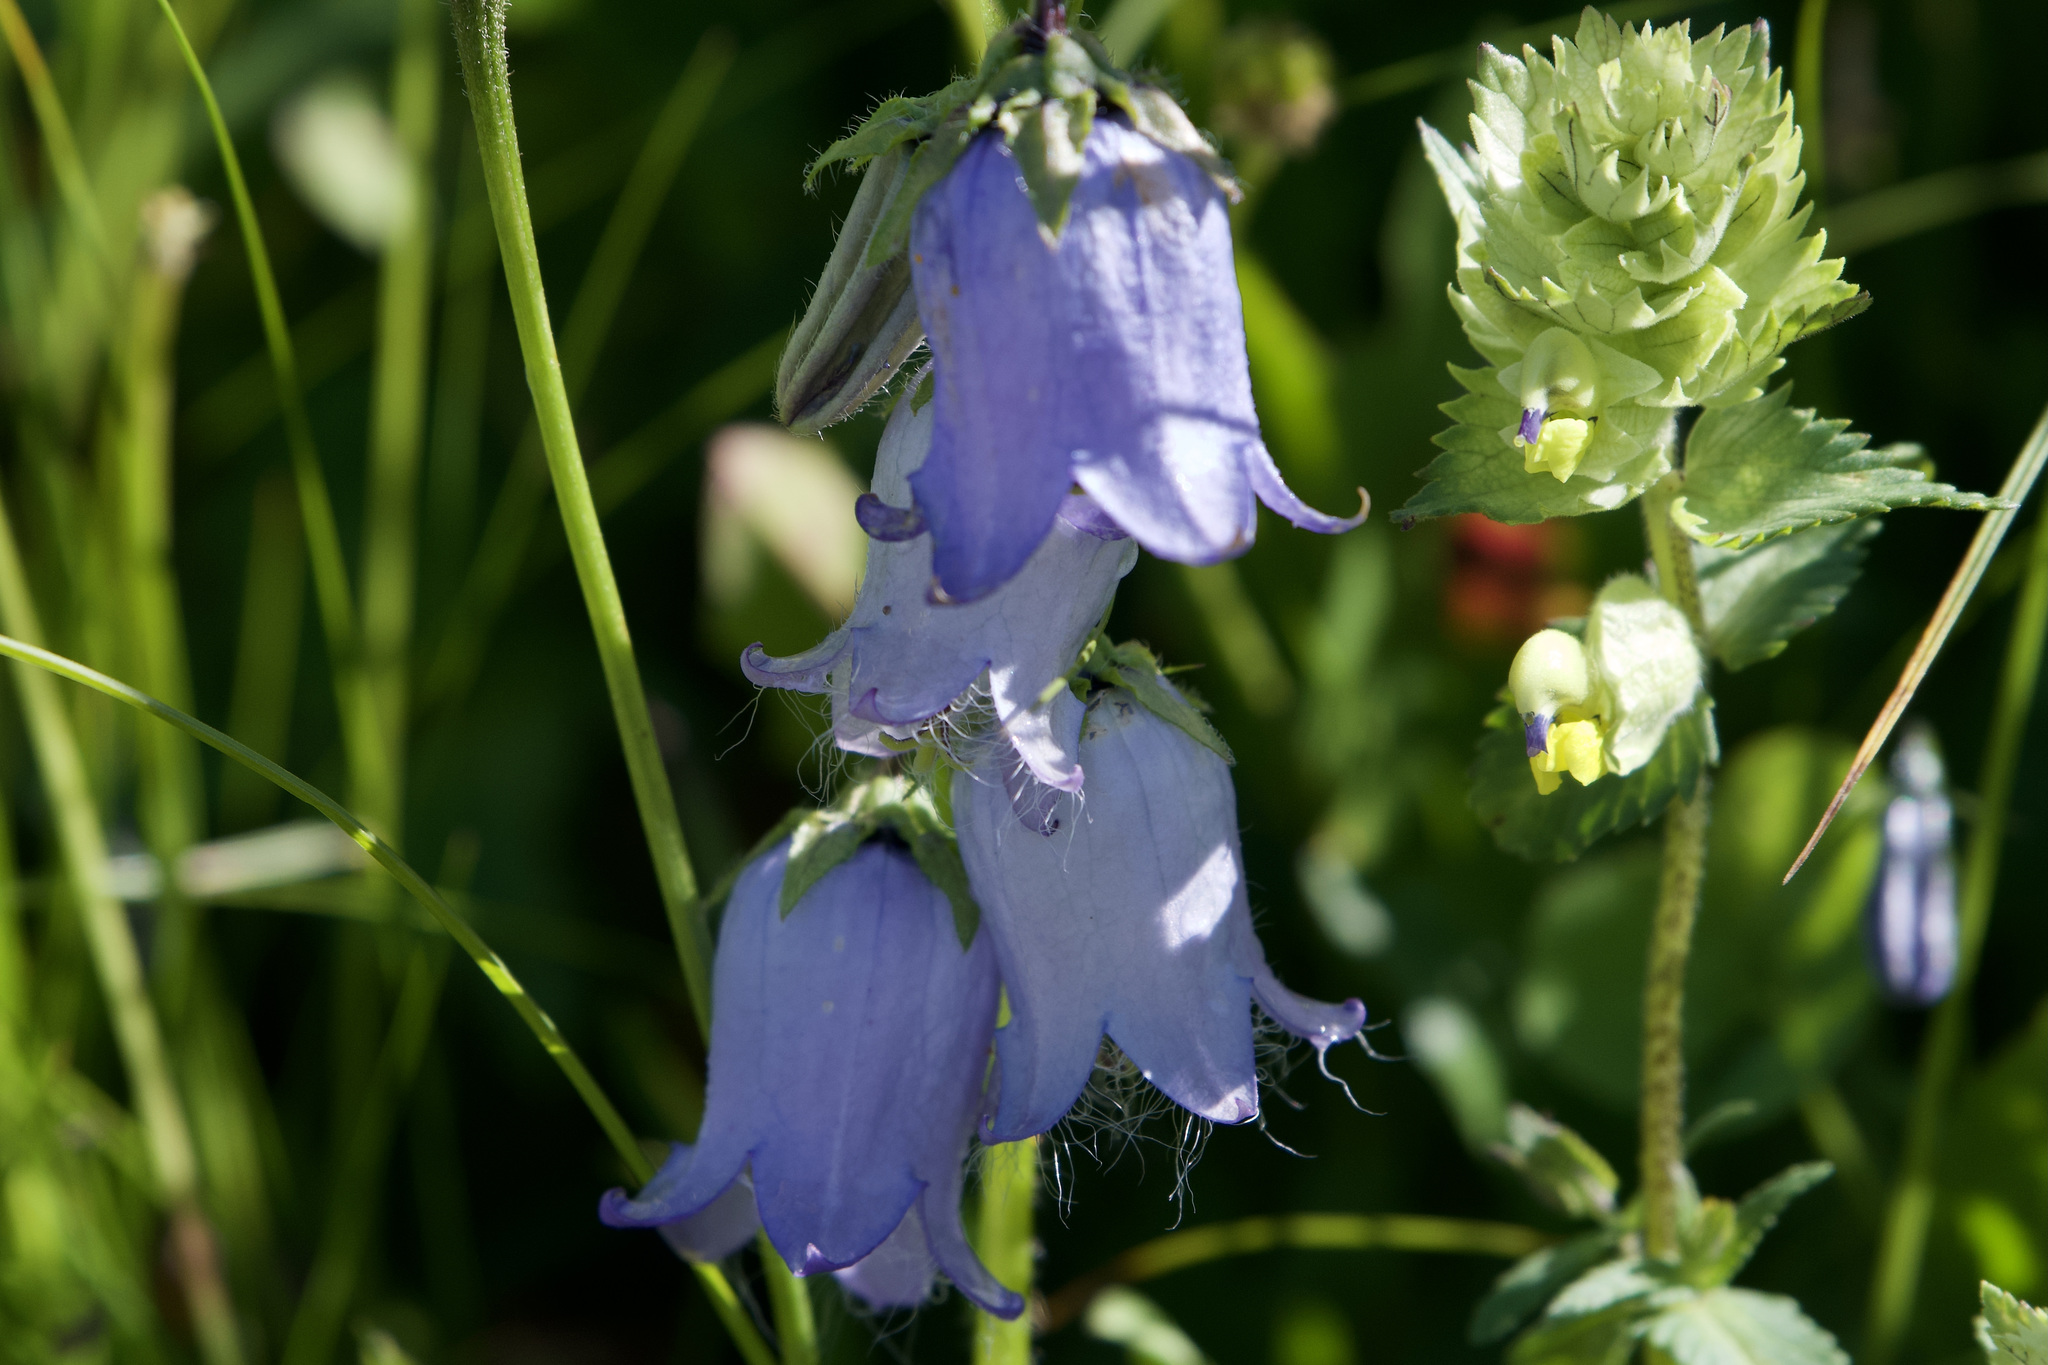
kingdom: Plantae
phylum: Tracheophyta
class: Magnoliopsida
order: Asterales
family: Campanulaceae
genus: Campanula
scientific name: Campanula barbata
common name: Bearded bellflower
